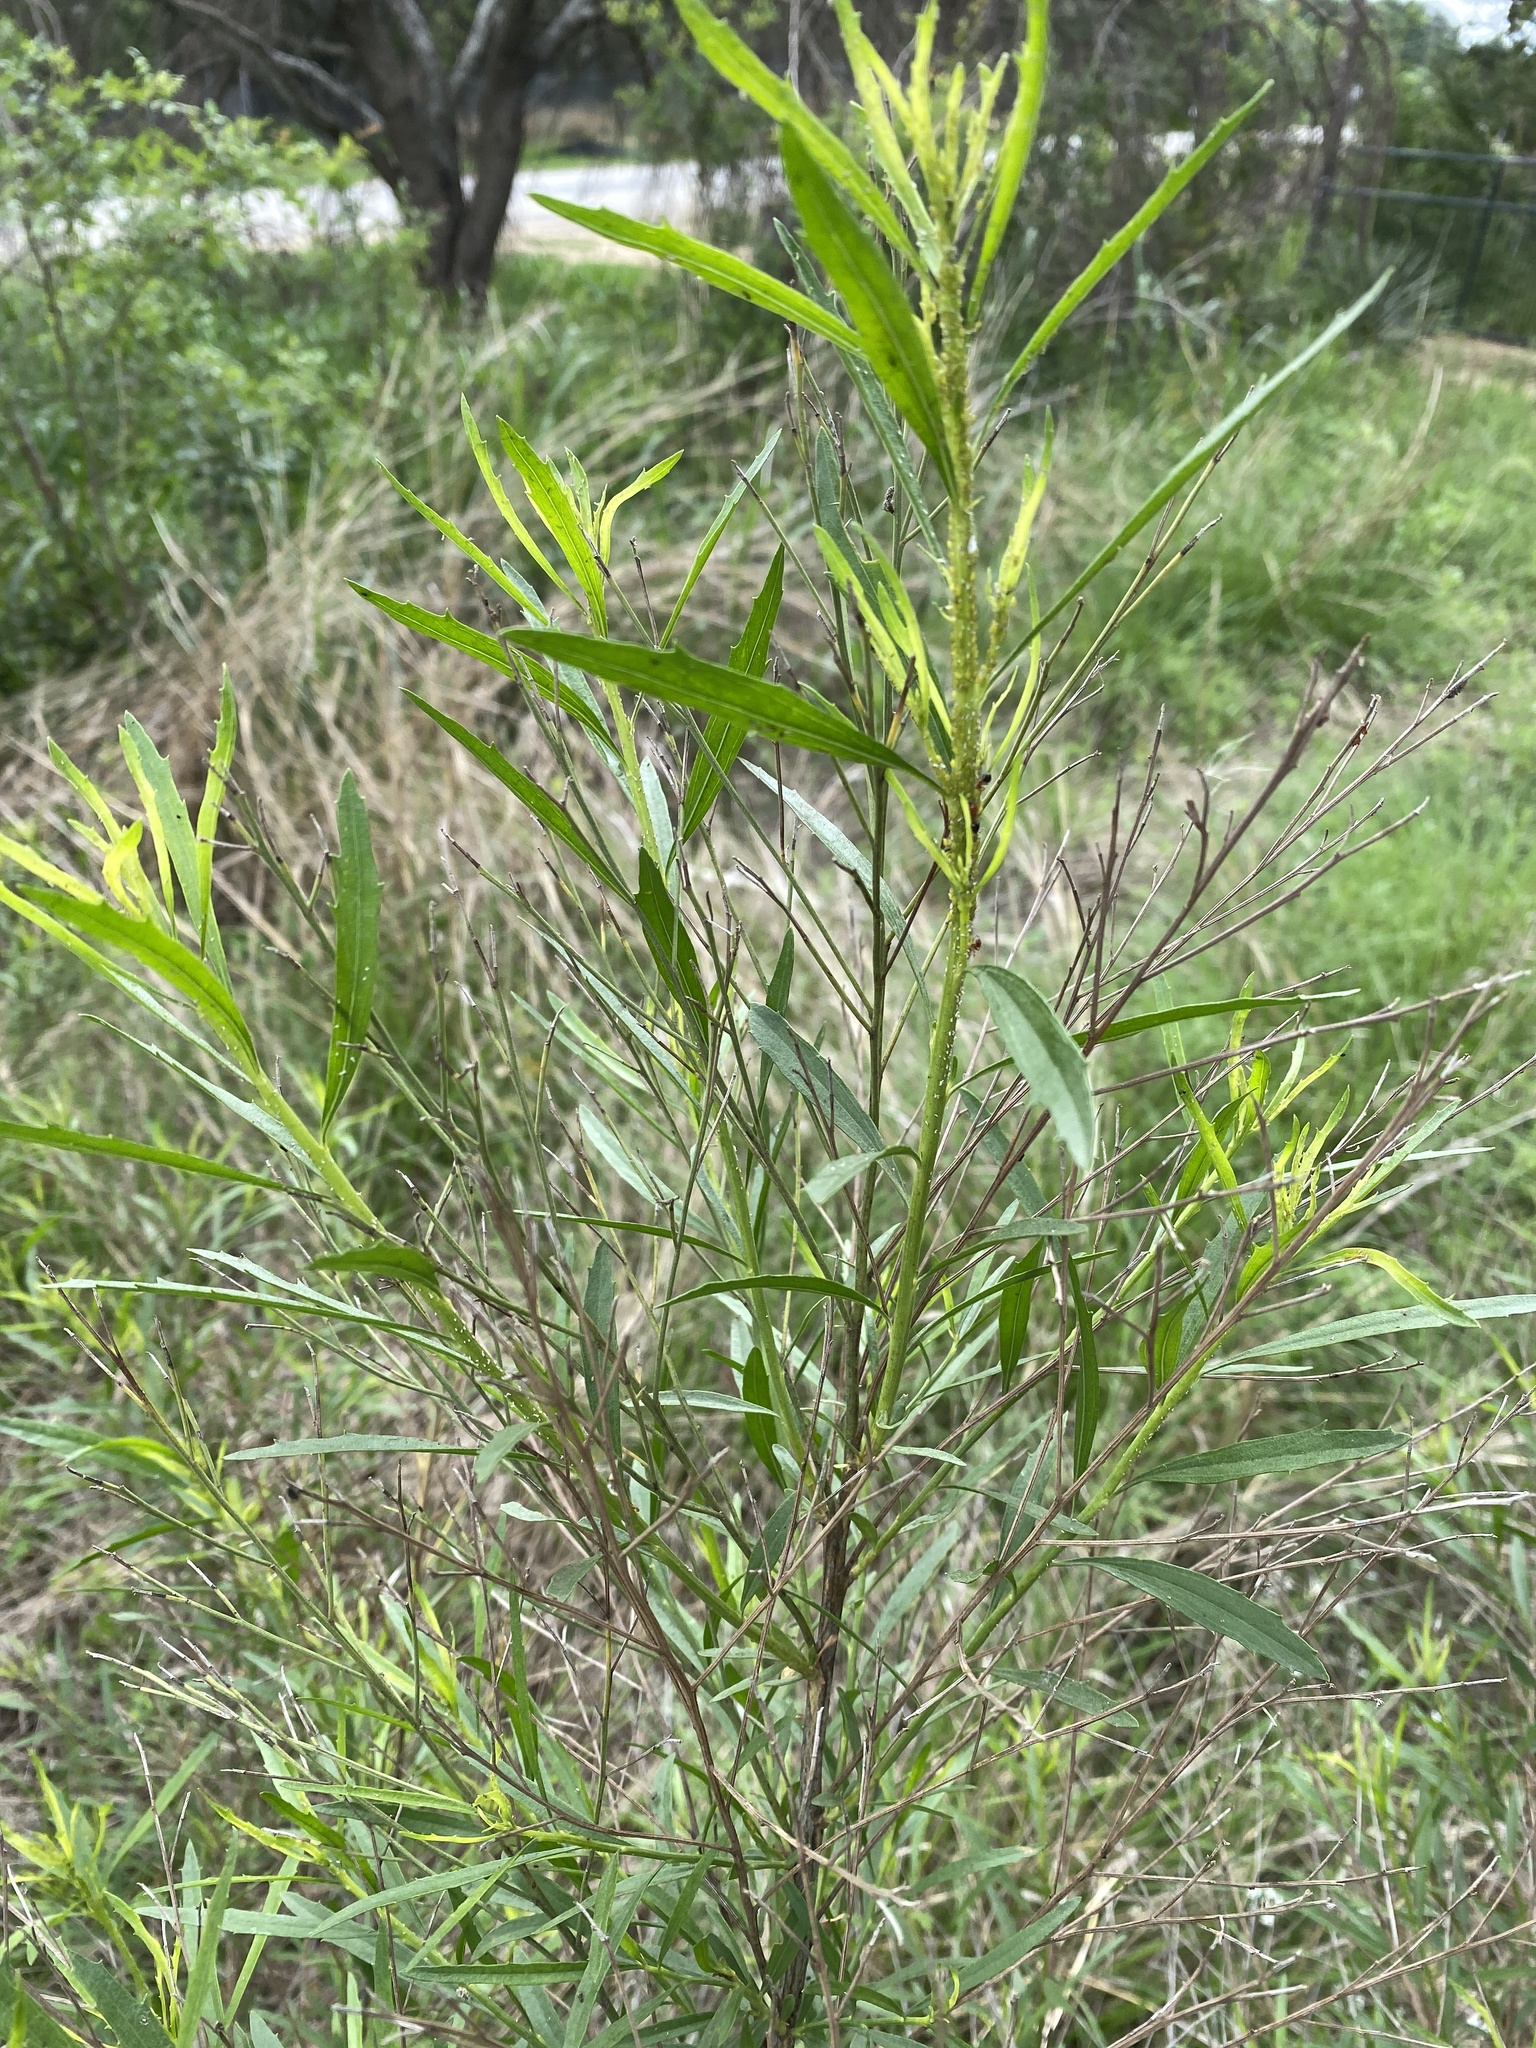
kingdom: Plantae
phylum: Tracheophyta
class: Magnoliopsida
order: Asterales
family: Asteraceae
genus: Baccharis
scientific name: Baccharis neglecta
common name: Roosevelt-weed
